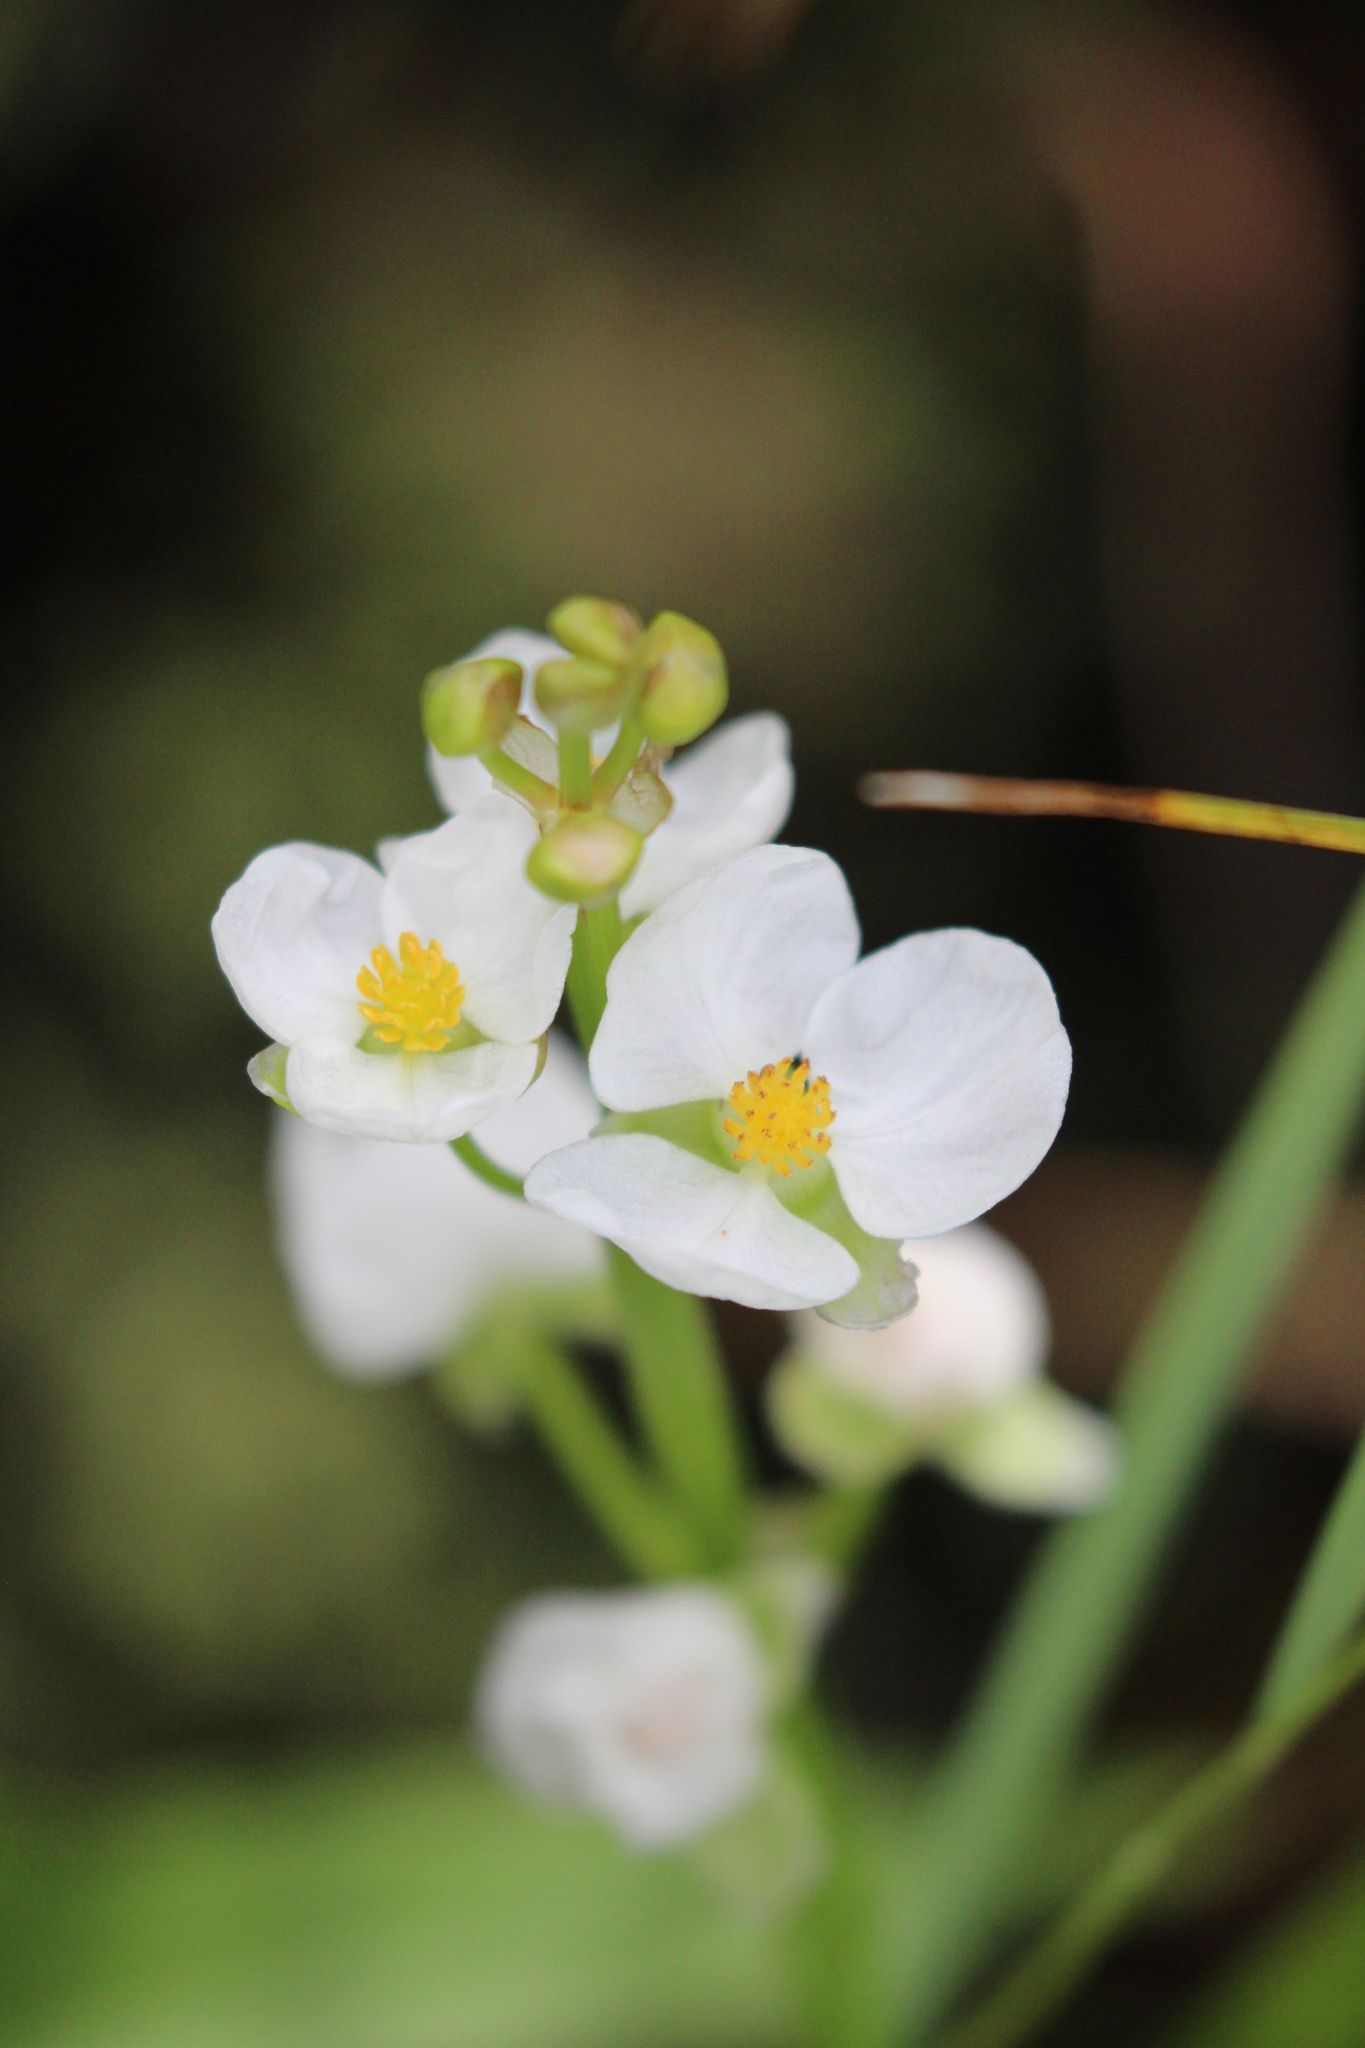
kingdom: Plantae
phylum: Tracheophyta
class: Liliopsida
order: Alismatales
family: Alismataceae
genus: Sagittaria
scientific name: Sagittaria latifolia
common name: Duck-potato
